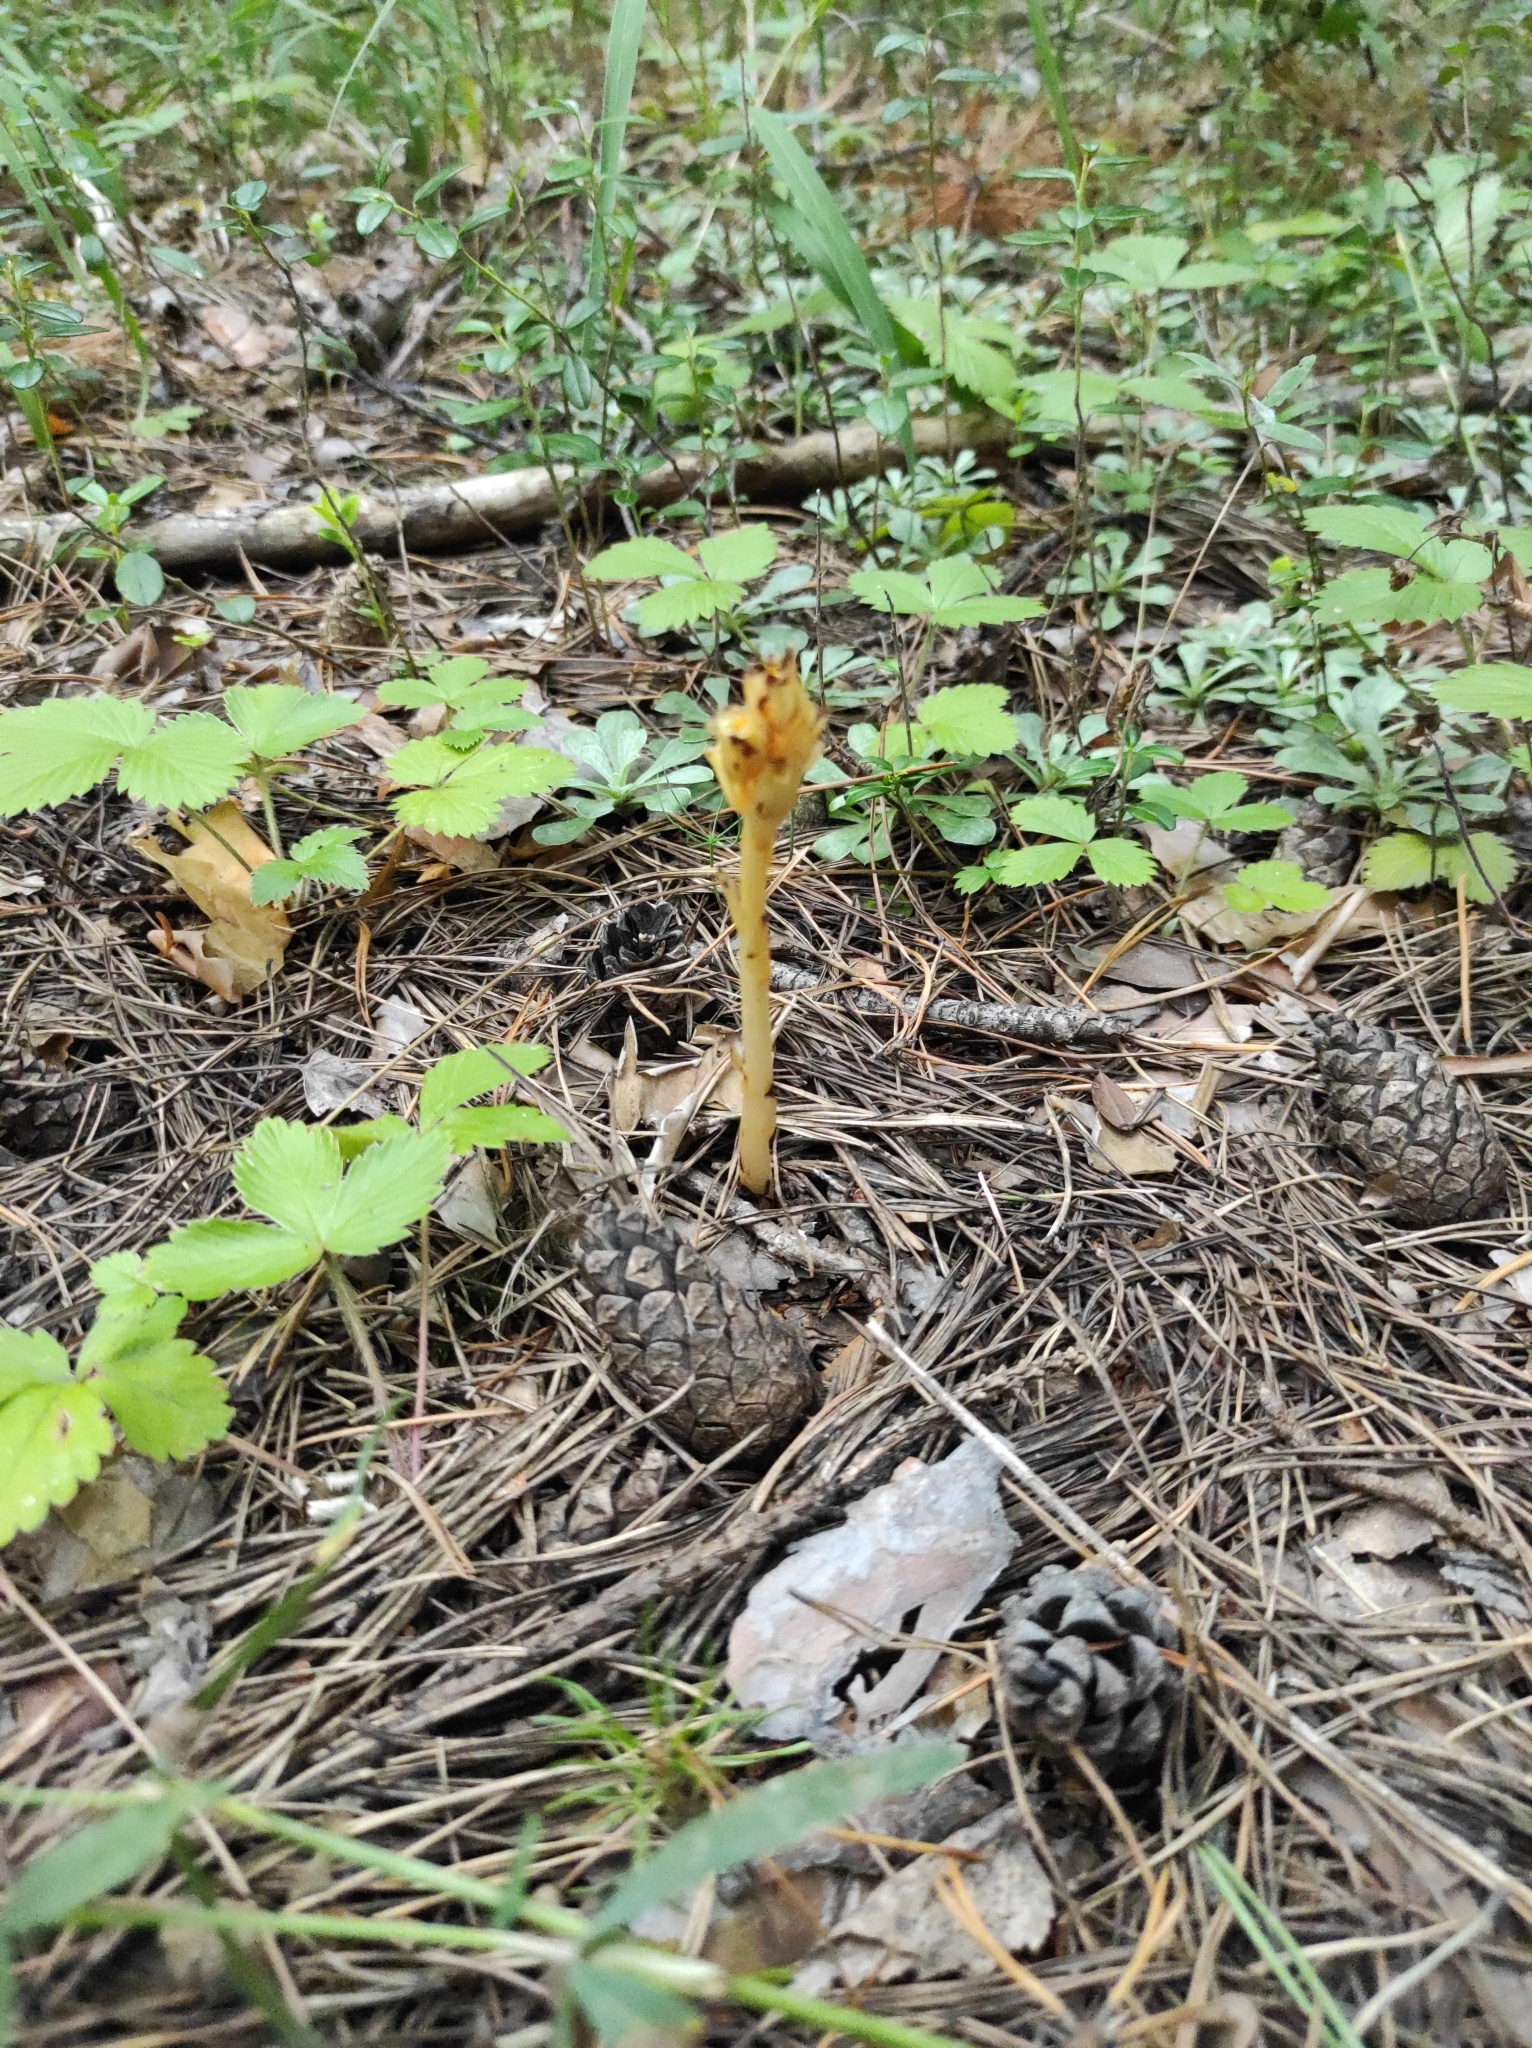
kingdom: Plantae
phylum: Tracheophyta
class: Magnoliopsida
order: Ericales
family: Ericaceae
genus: Hypopitys
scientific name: Hypopitys monotropa
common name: Yellow bird's-nest
